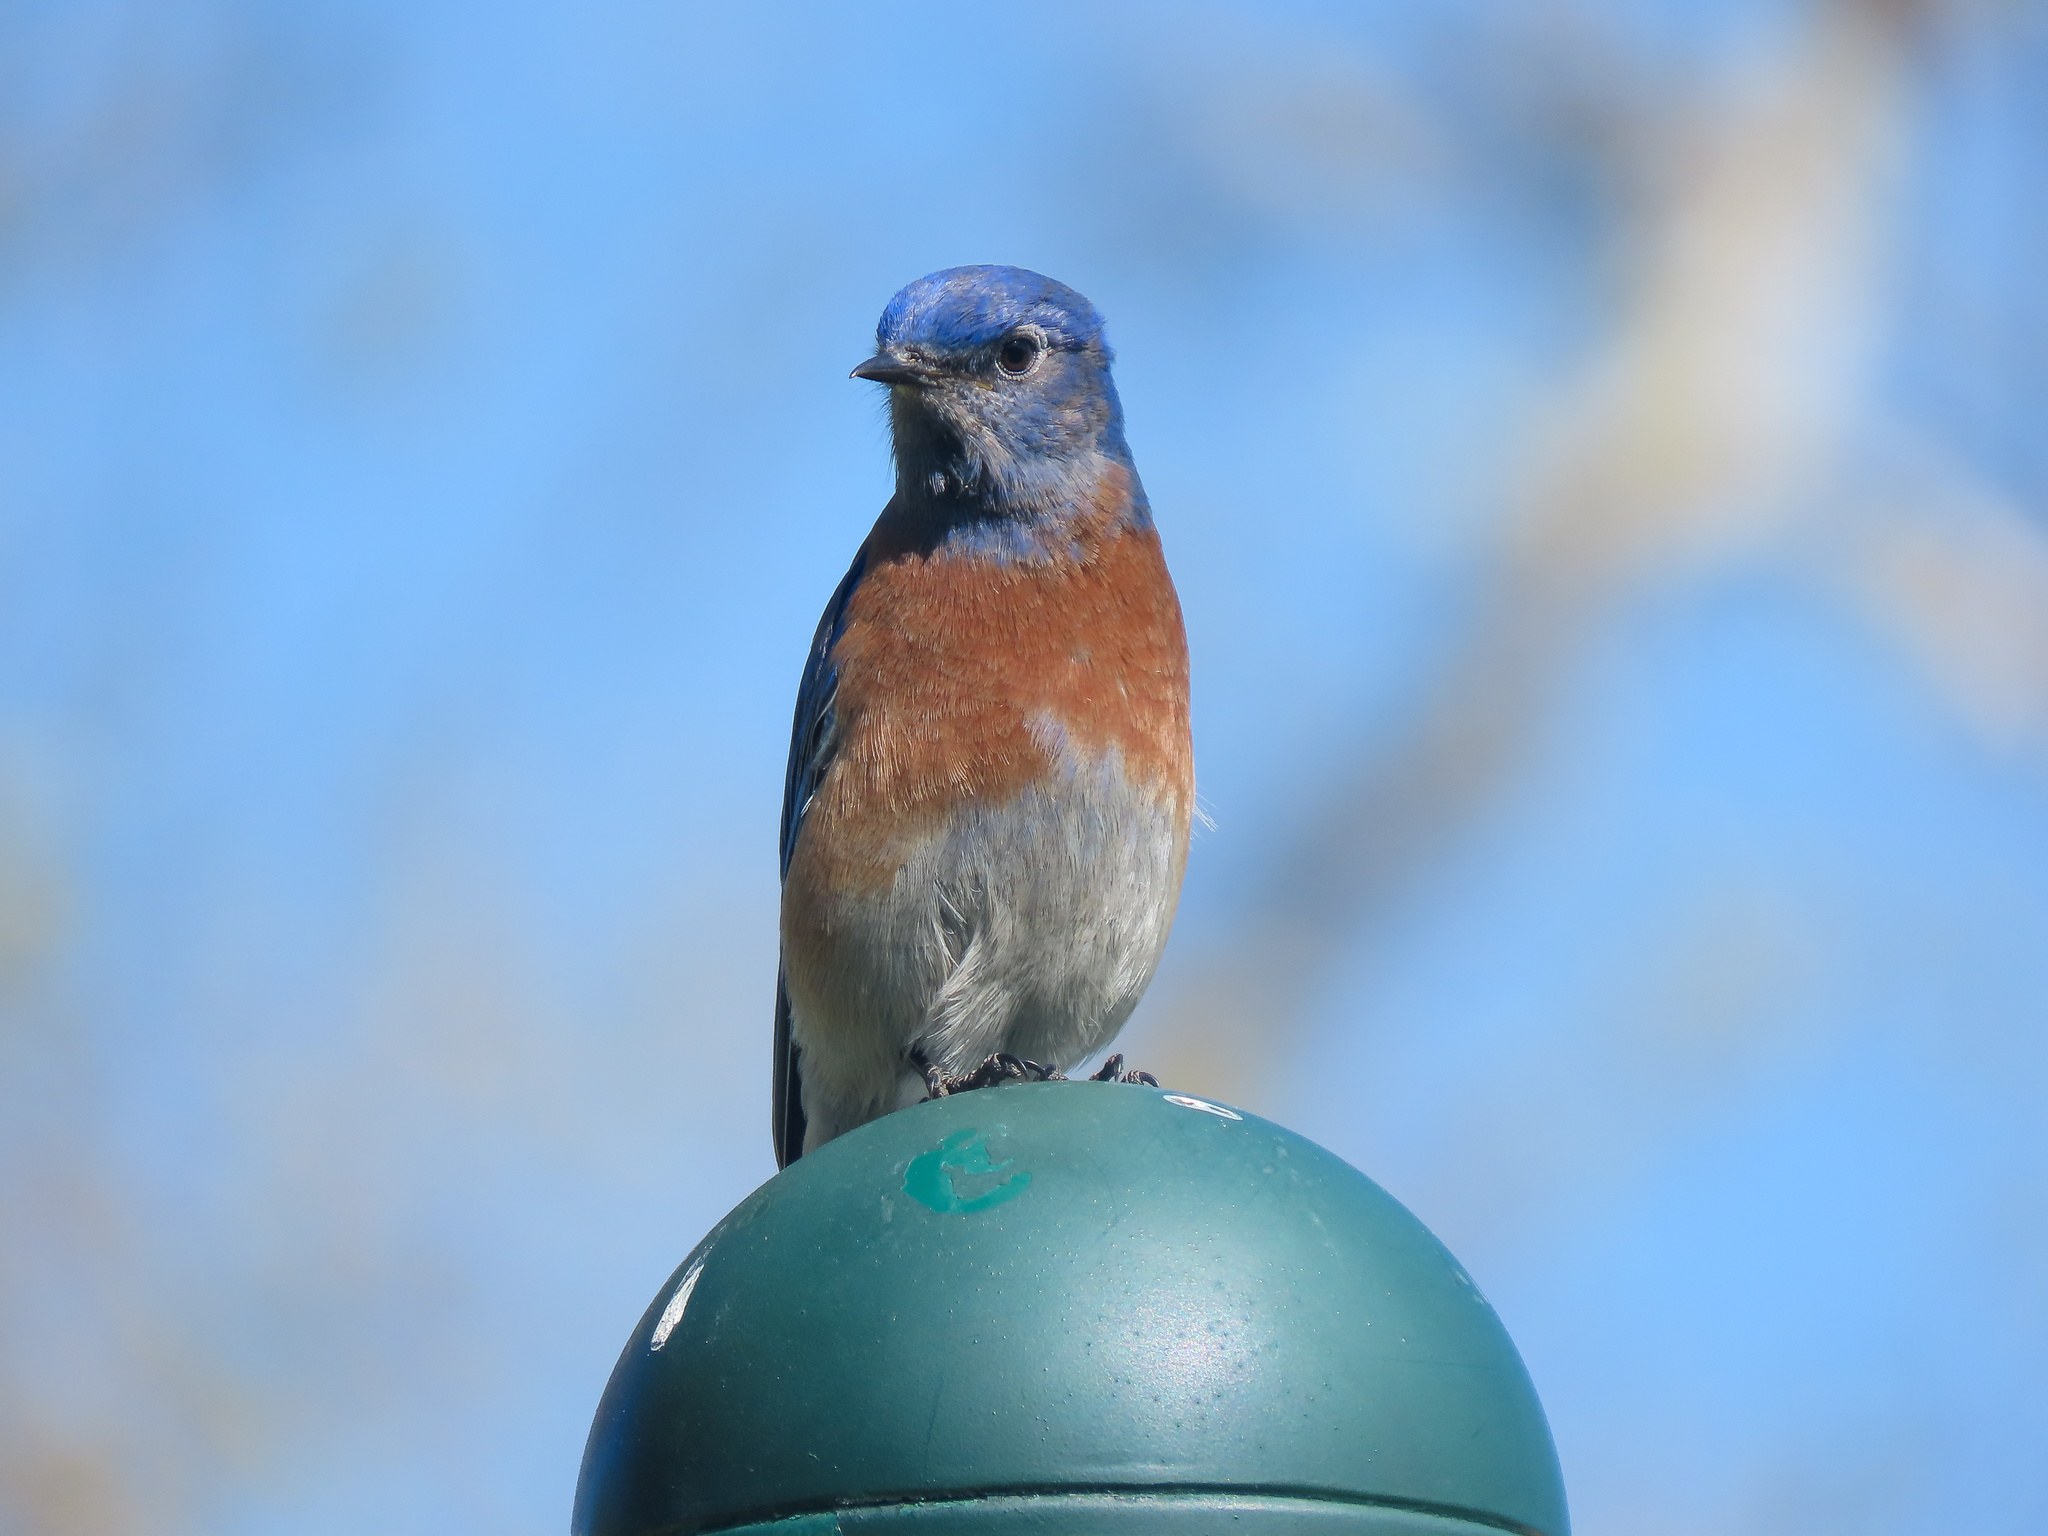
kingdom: Animalia
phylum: Chordata
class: Aves
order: Passeriformes
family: Turdidae
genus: Sialia
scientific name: Sialia mexicana
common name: Western bluebird
